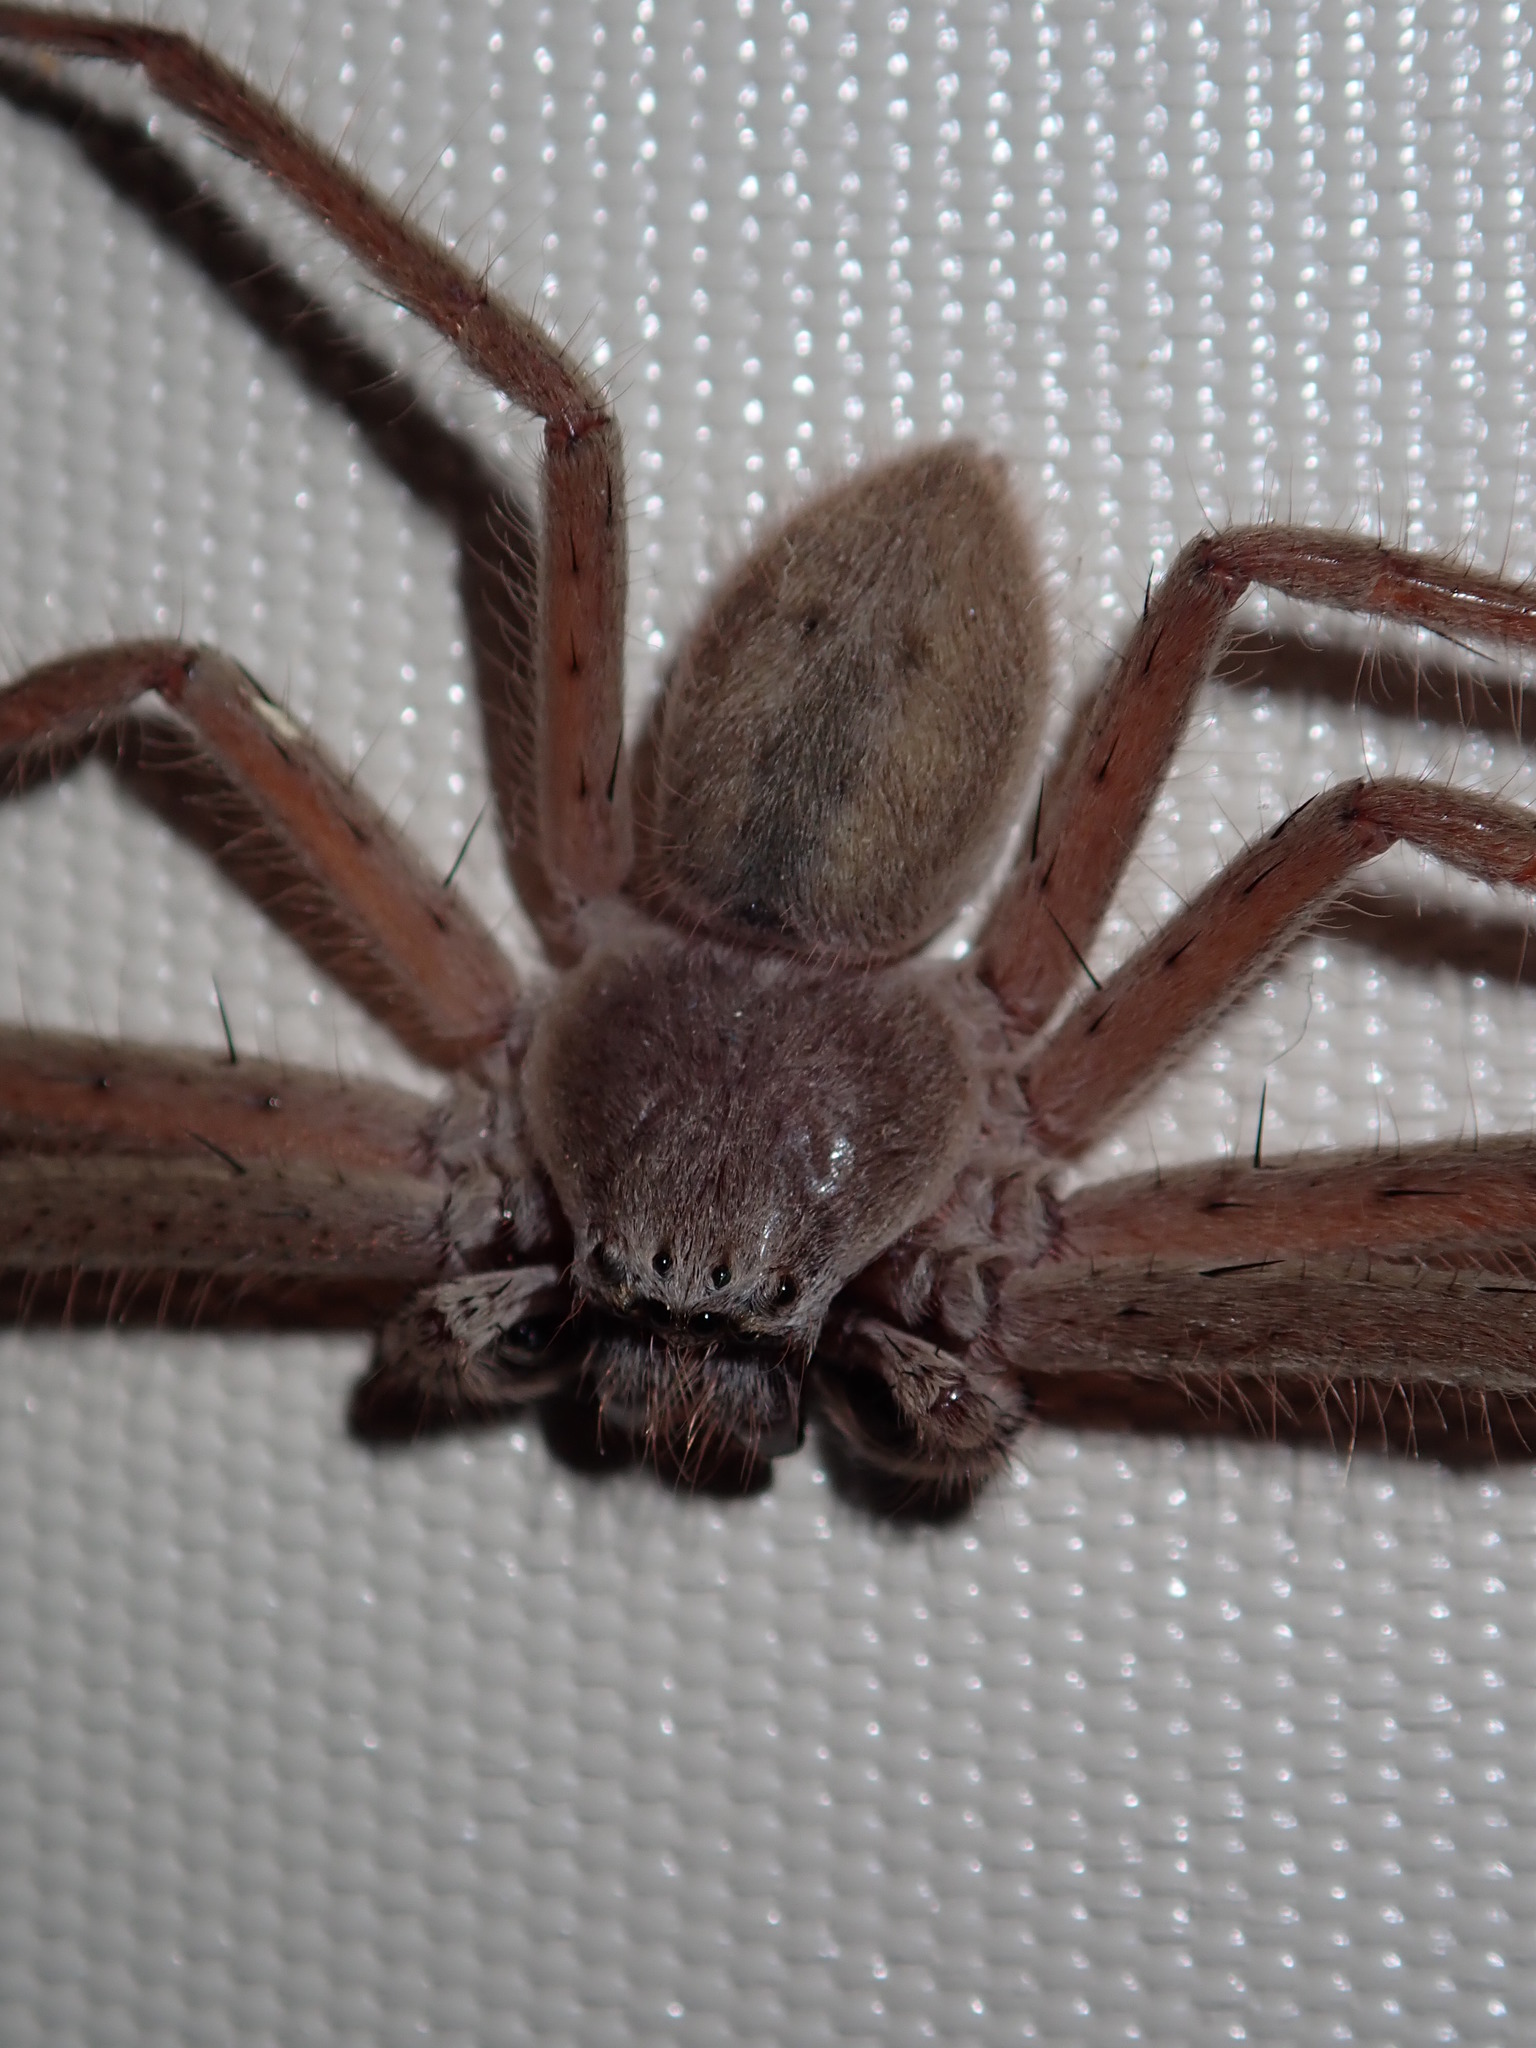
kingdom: Animalia
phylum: Arthropoda
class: Arachnida
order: Araneae
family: Sparassidae
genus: Isopeda
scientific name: Isopeda villosa
